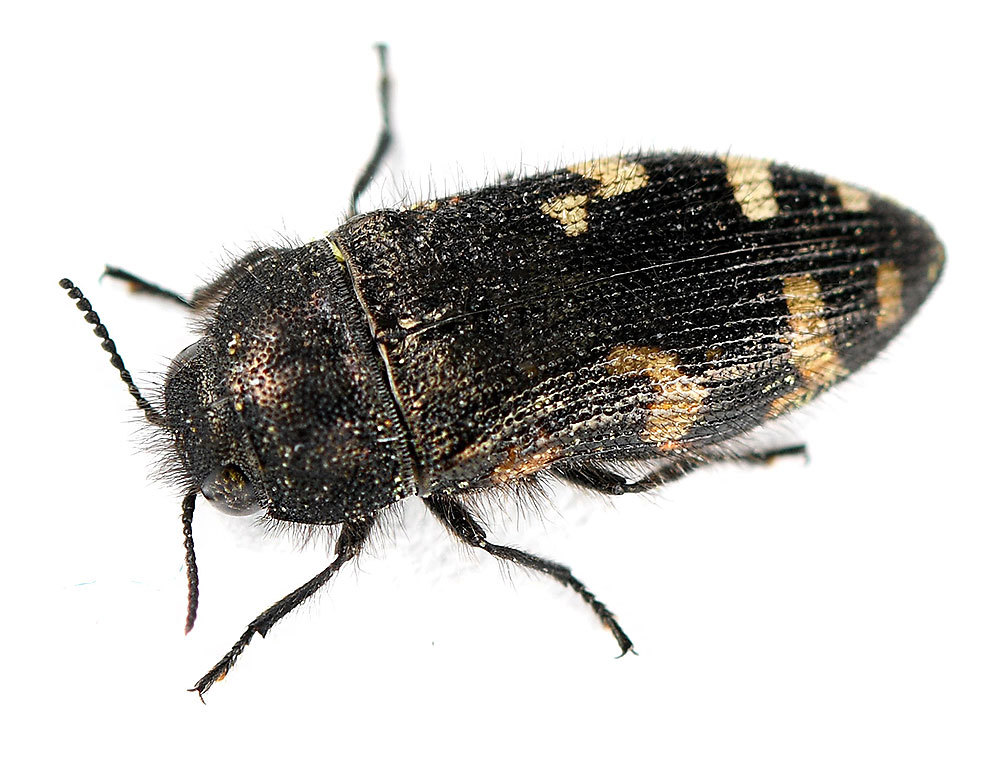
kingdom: Animalia
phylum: Arthropoda
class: Insecta
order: Coleoptera
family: Buprestidae
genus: Acmaeodera
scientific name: Acmaeodera idahoensis
